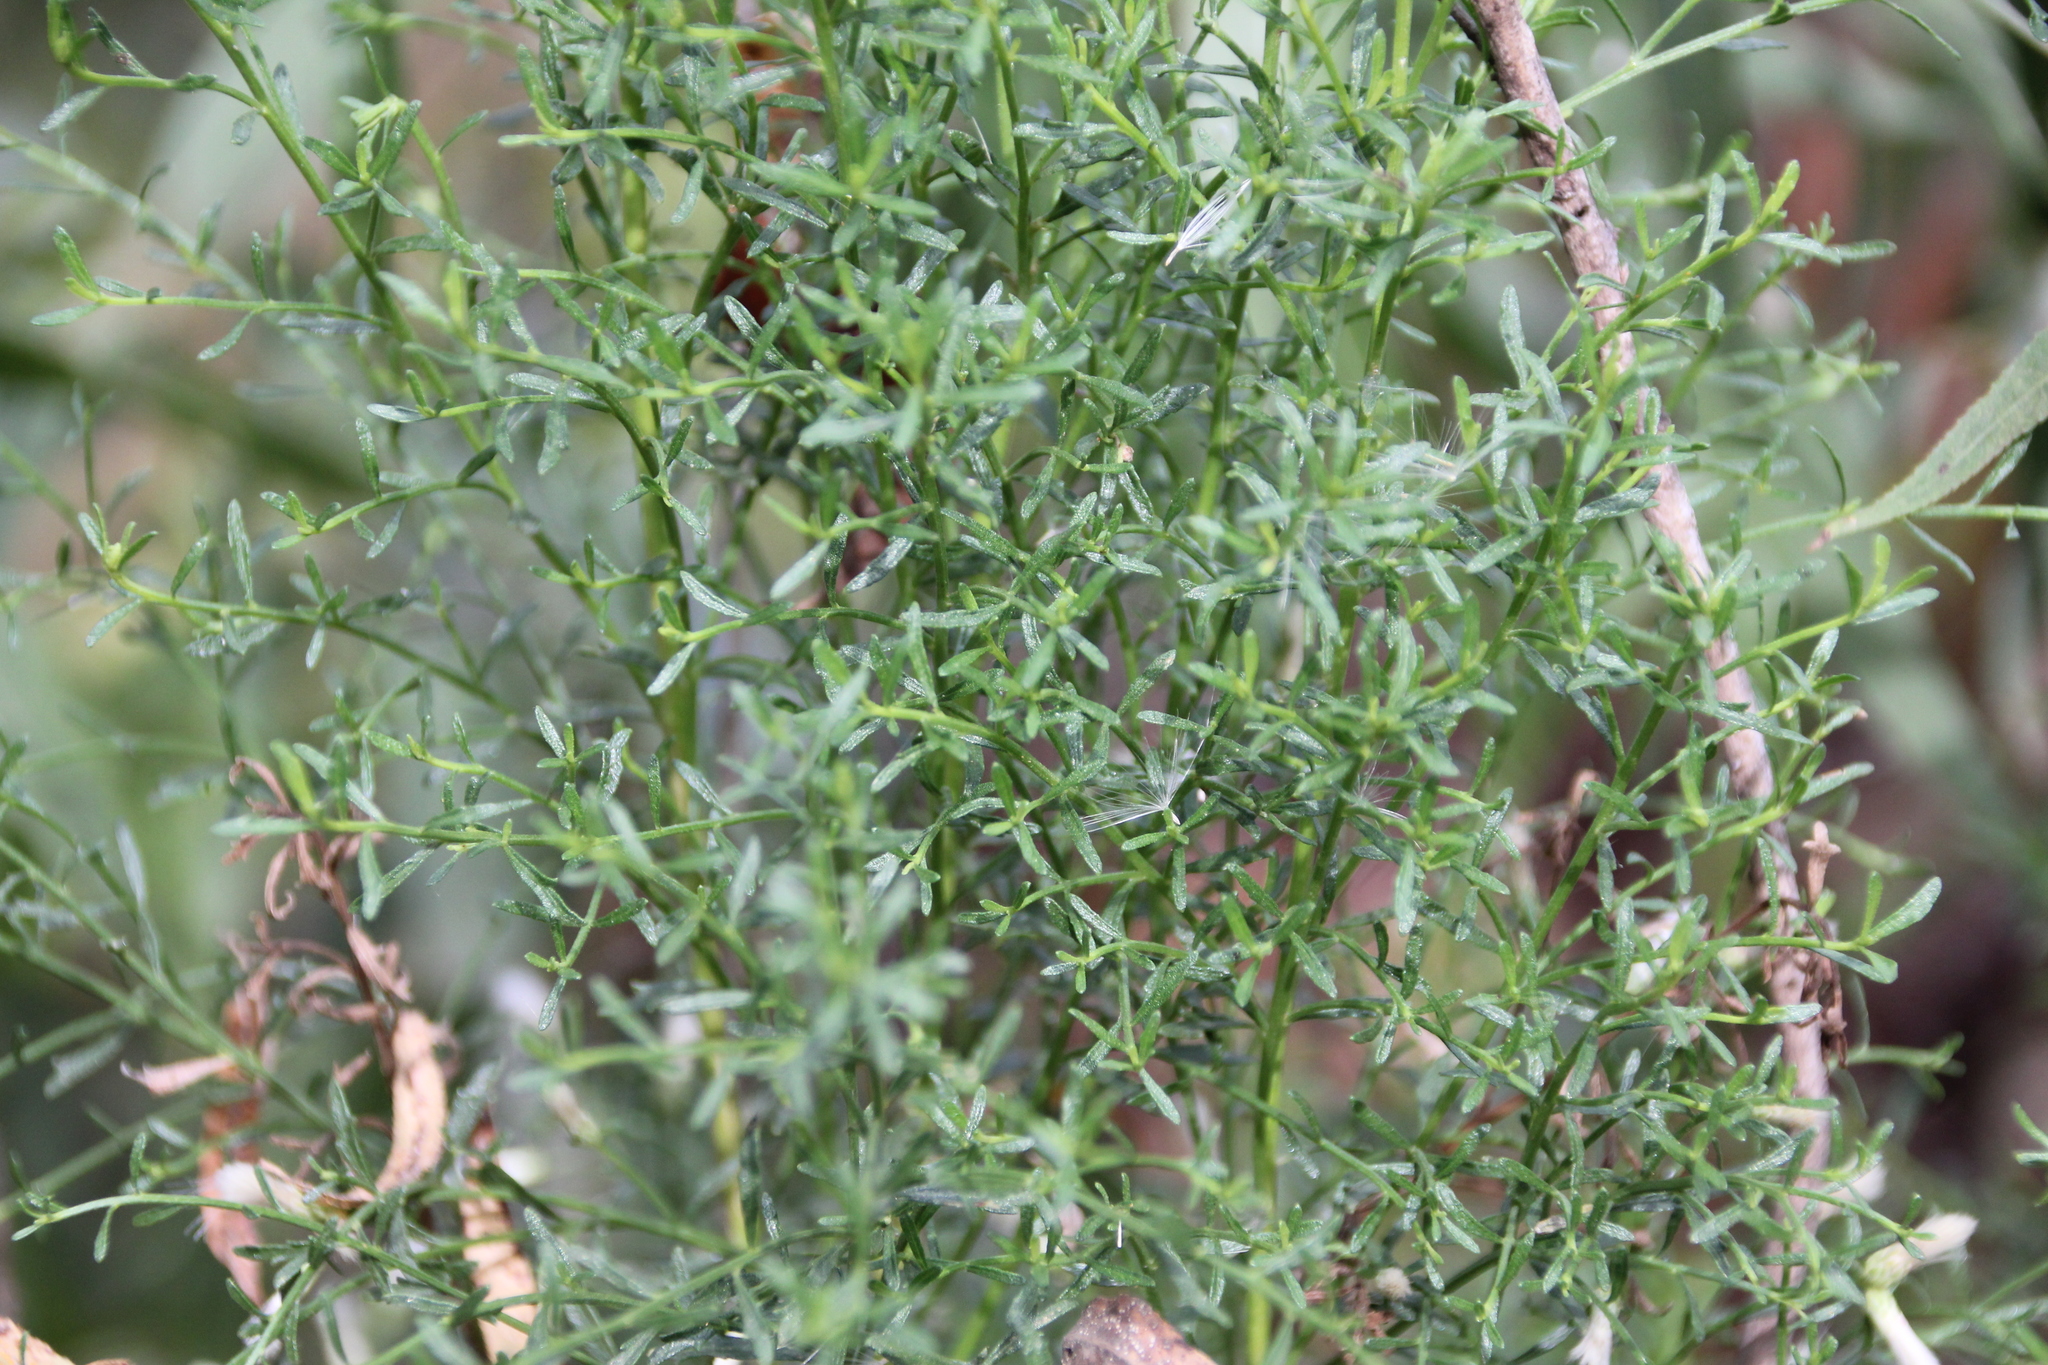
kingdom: Plantae
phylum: Tracheophyta
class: Magnoliopsida
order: Asterales
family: Asteraceae
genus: Baccharis
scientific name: Baccharis pilularis
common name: Coyotebrush
